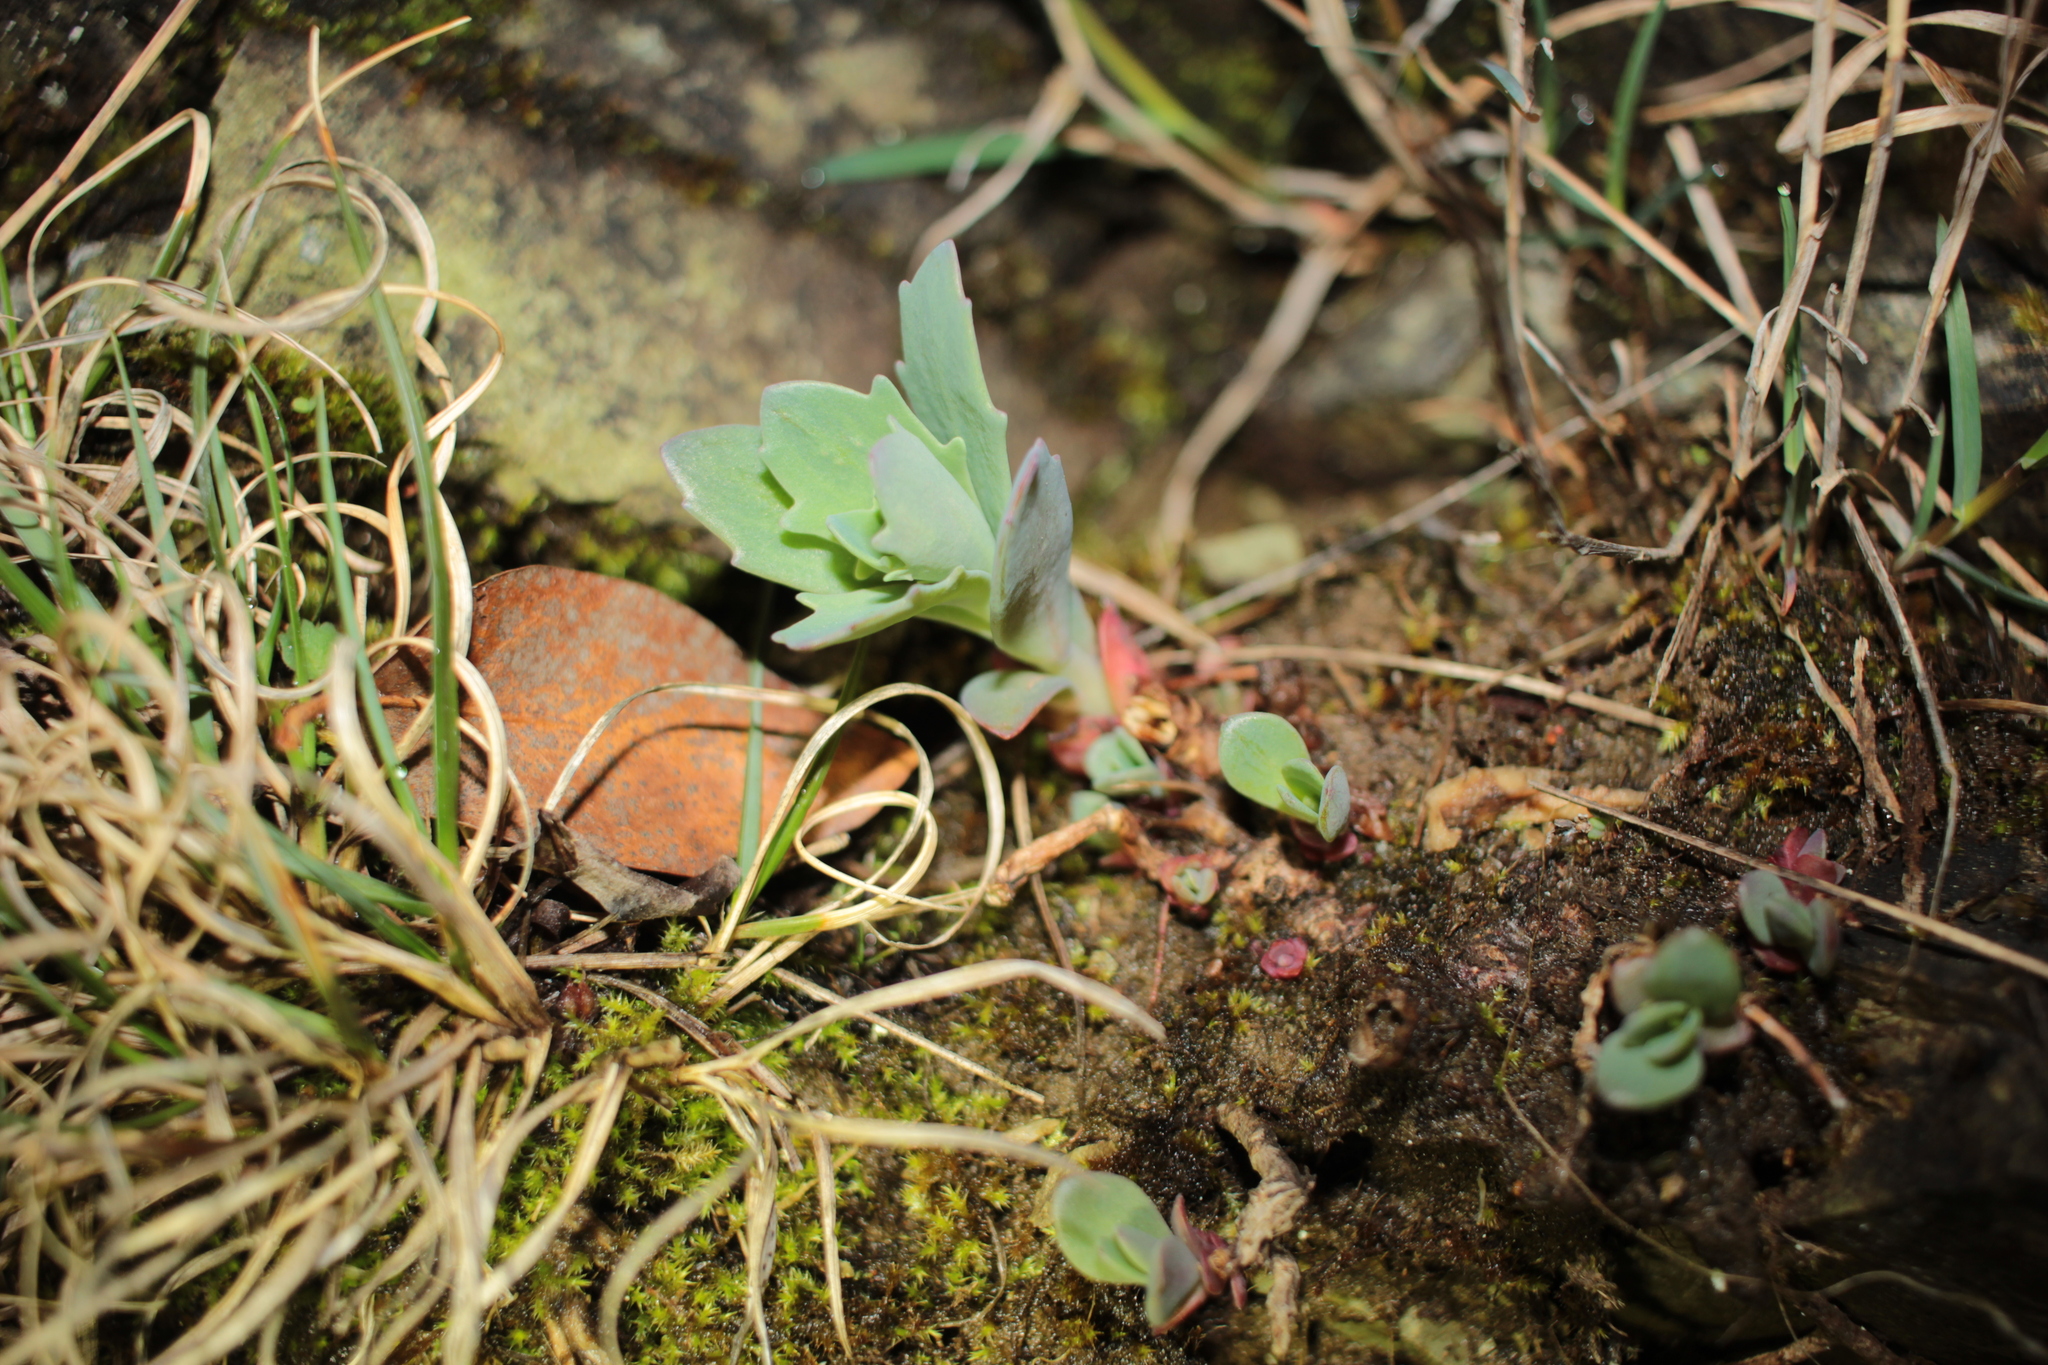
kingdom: Plantae
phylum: Tracheophyta
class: Magnoliopsida
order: Saxifragales
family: Crassulaceae
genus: Hylotelephium
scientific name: Hylotelephium telephioides
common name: Allegheny stonecrop
